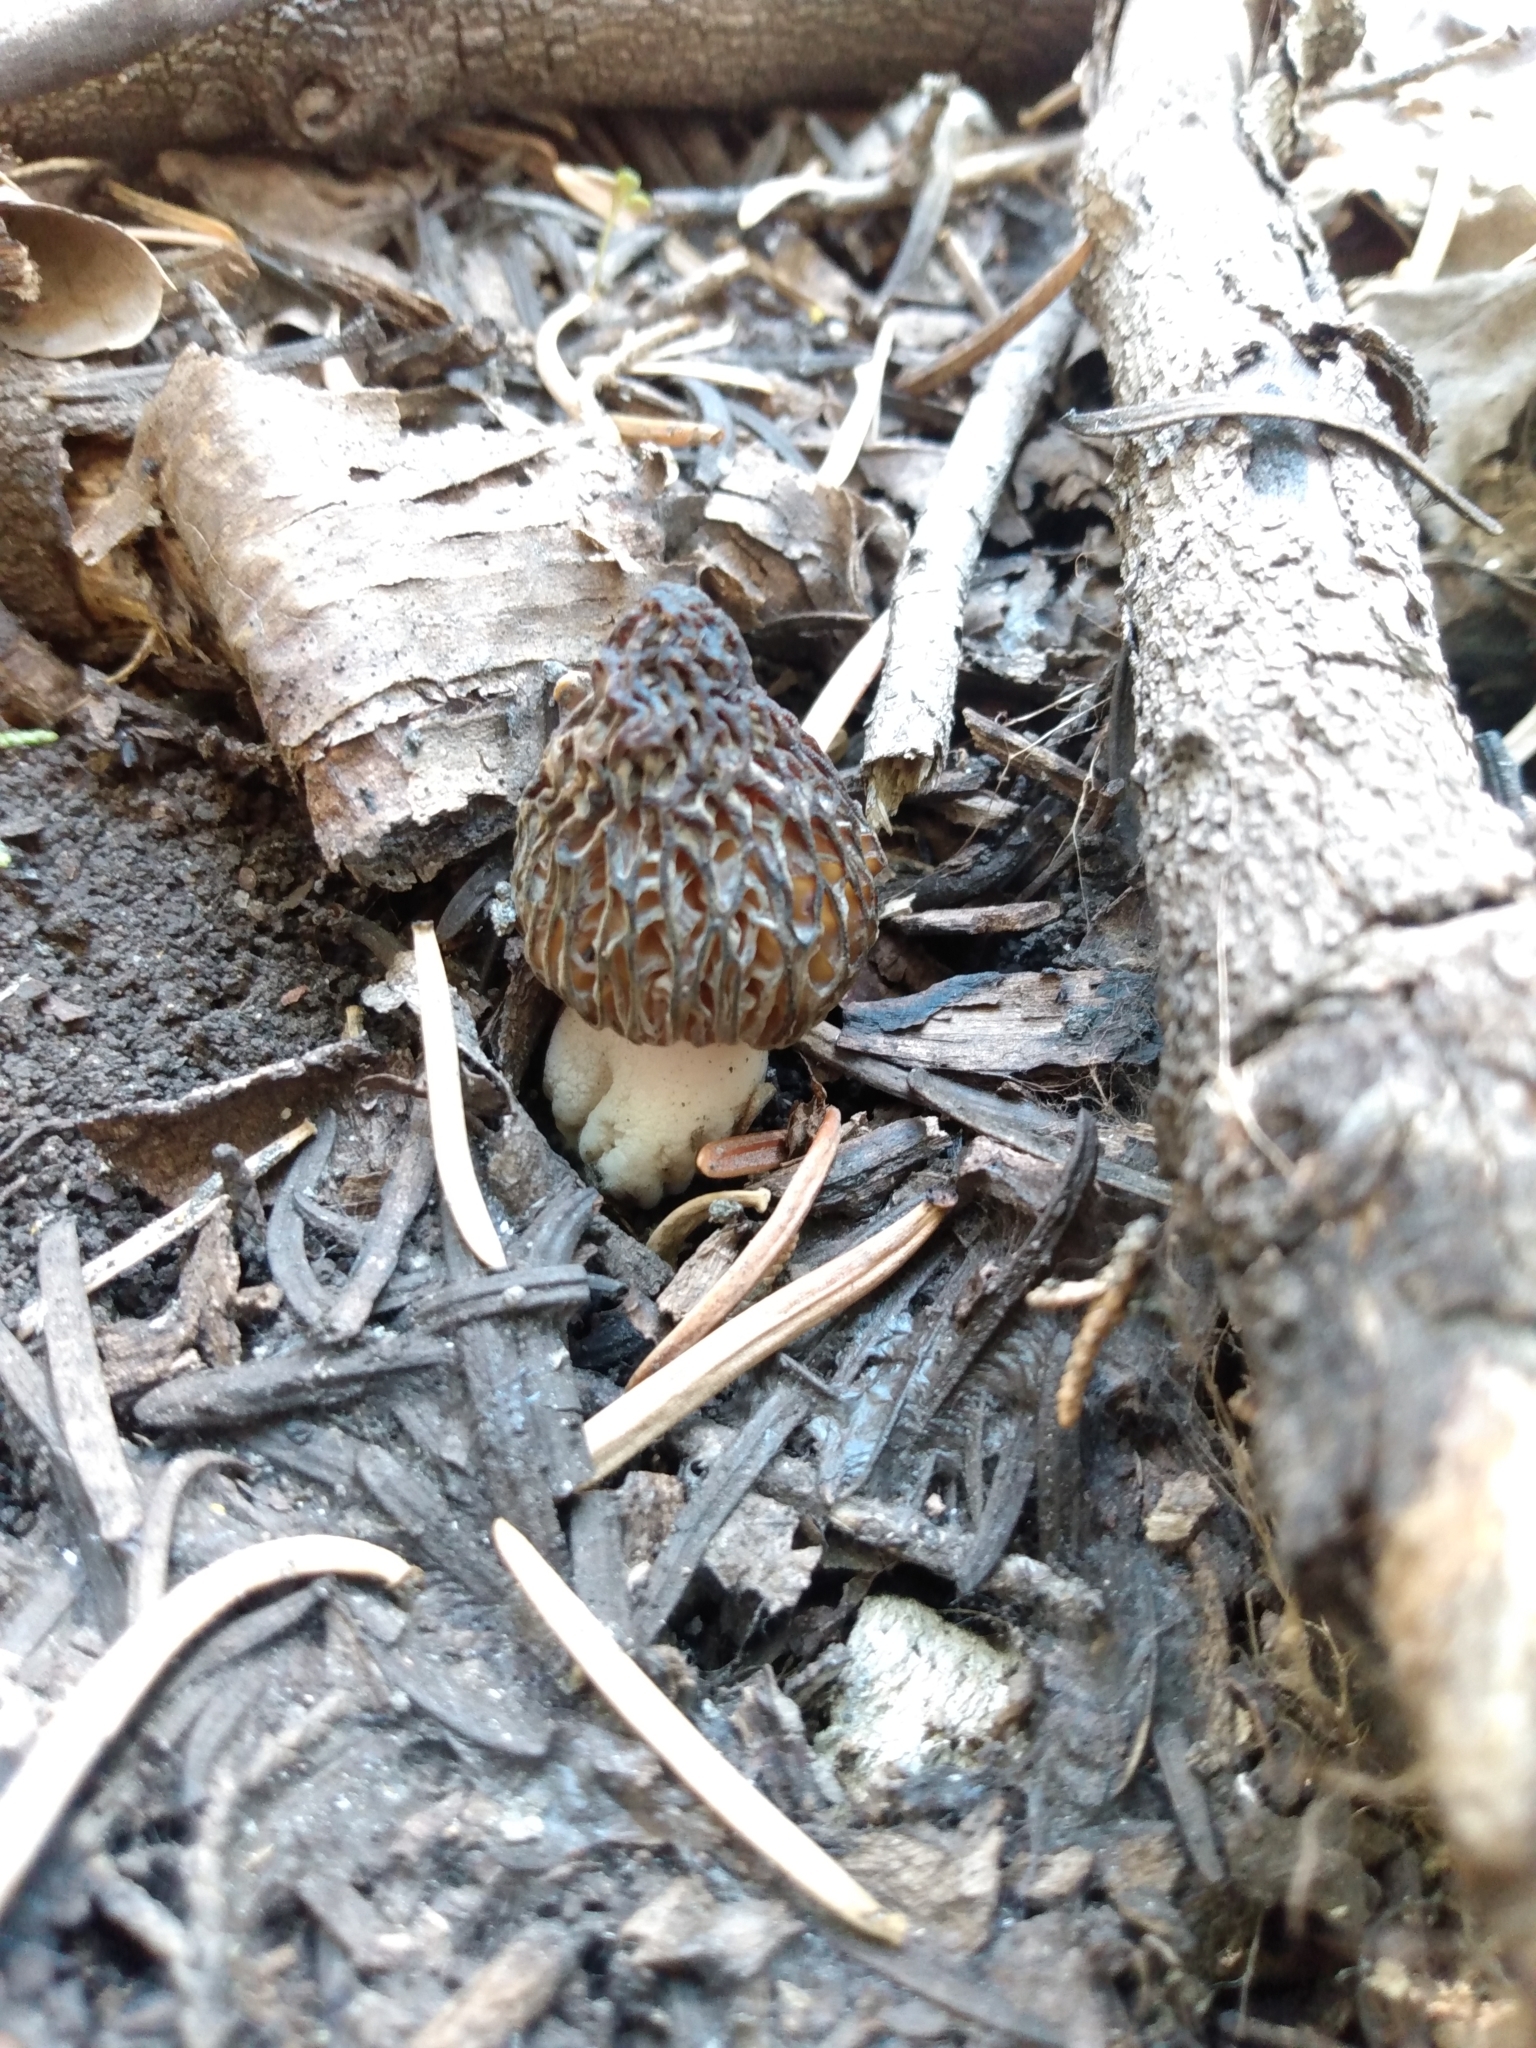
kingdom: Fungi
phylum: Ascomycota
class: Pezizomycetes
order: Pezizales
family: Morchellaceae
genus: Morchella
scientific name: Morchella snyderi
